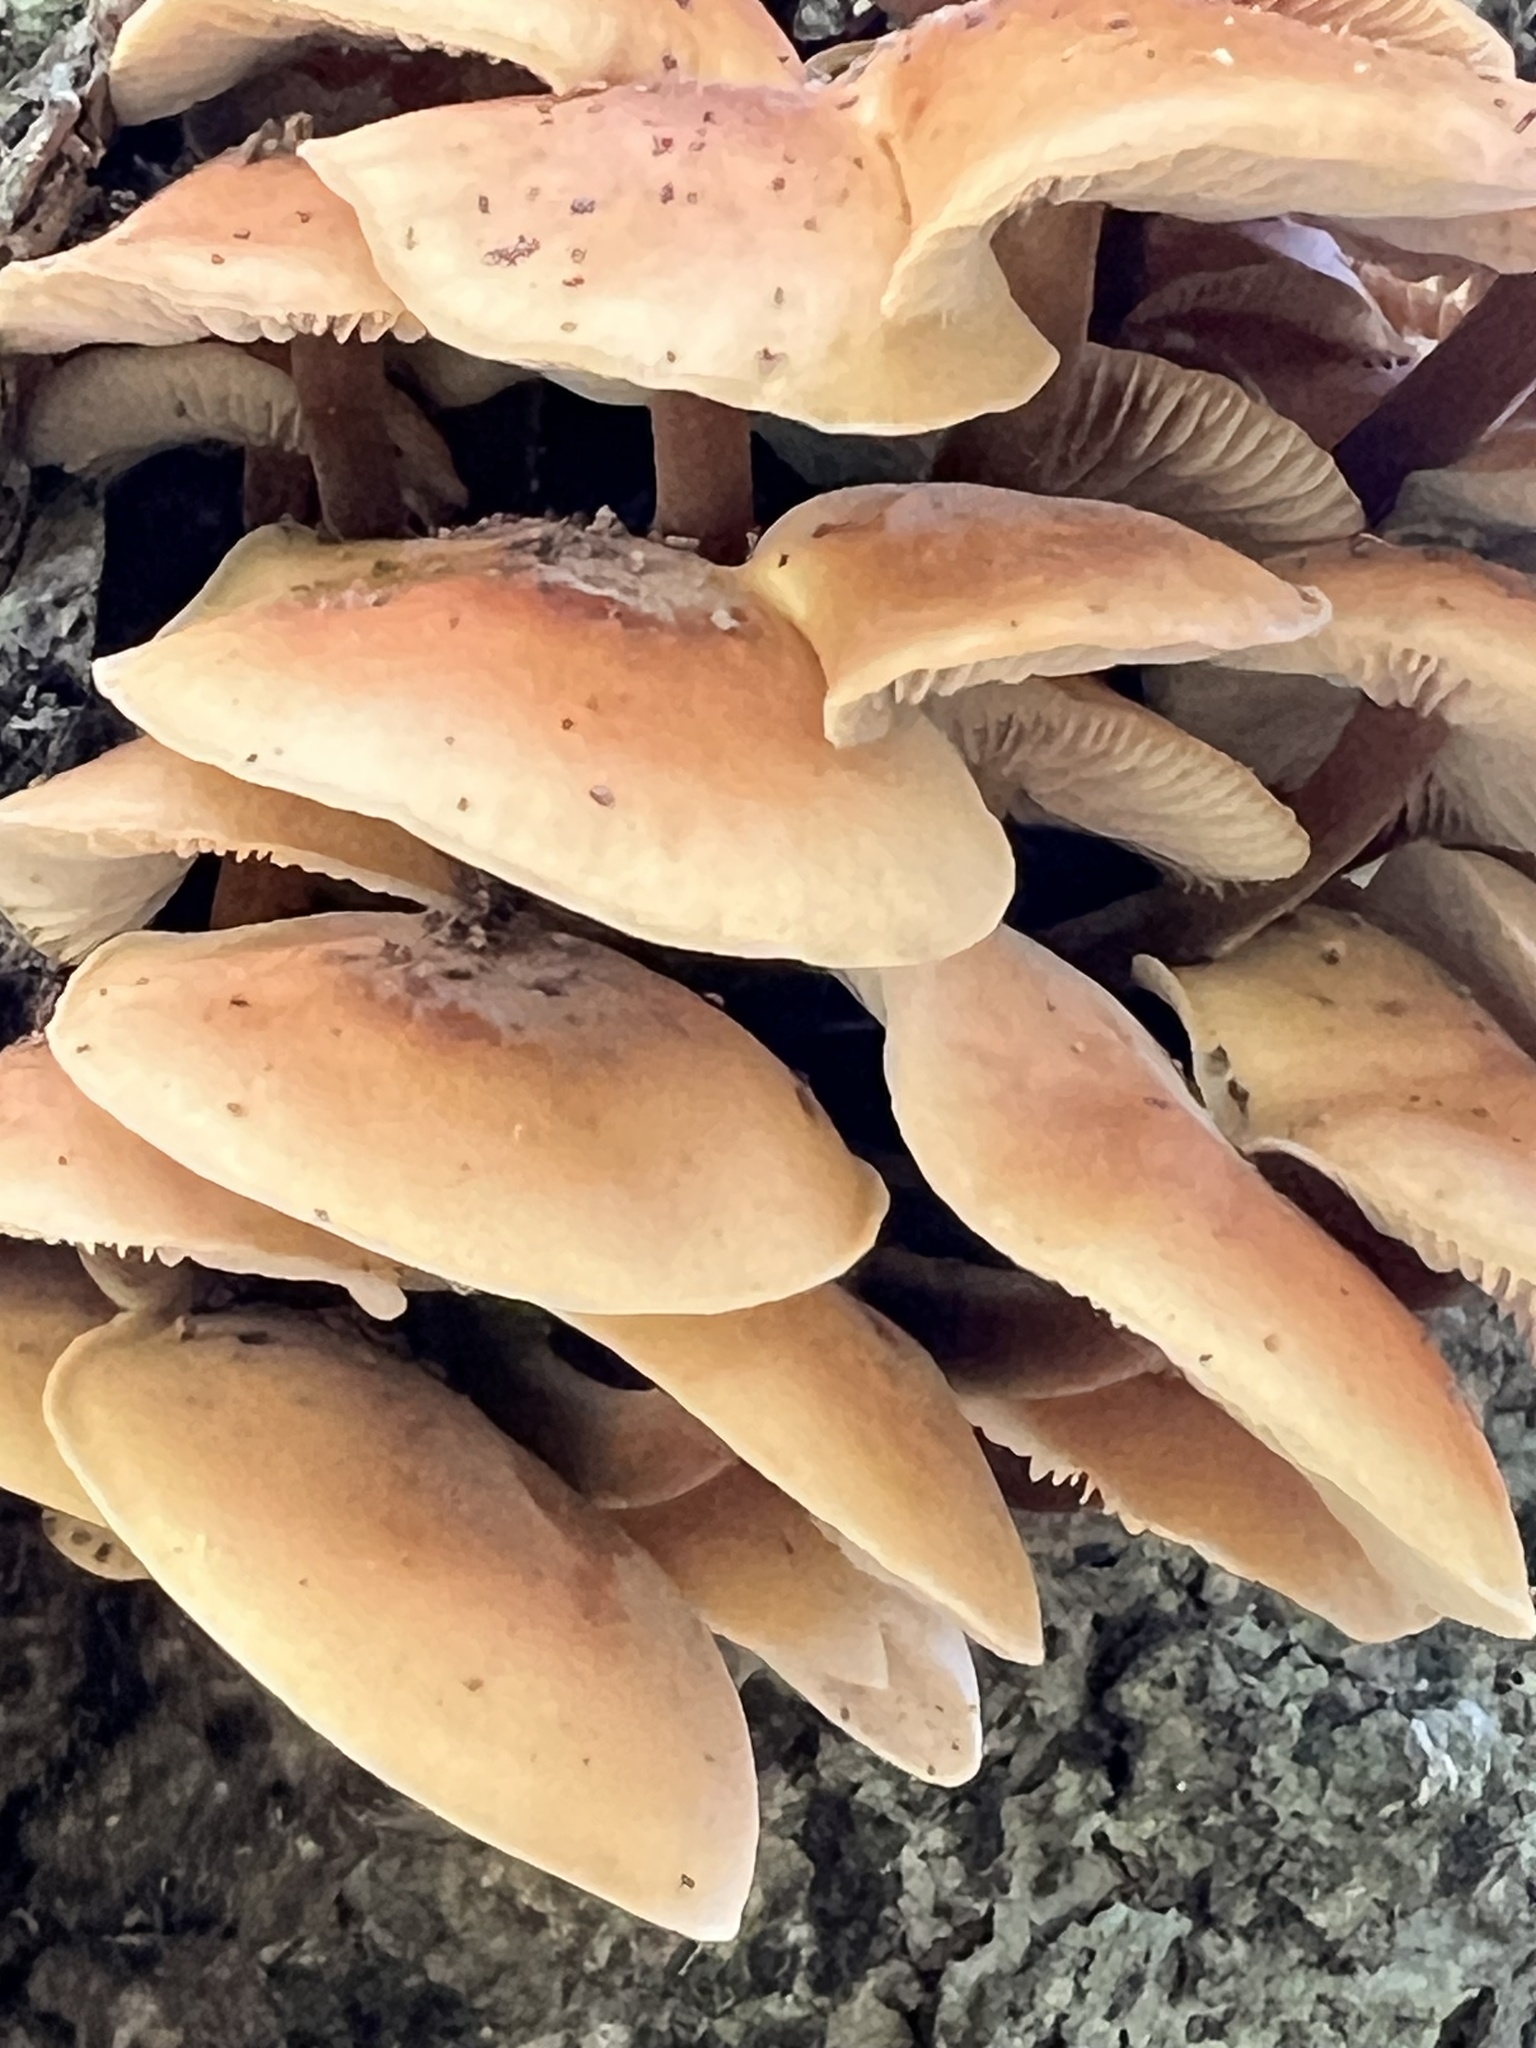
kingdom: Fungi
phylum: Basidiomycota
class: Agaricomycetes
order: Agaricales
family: Physalacriaceae
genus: Flammulina
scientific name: Flammulina velutipes
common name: Velvet shank
